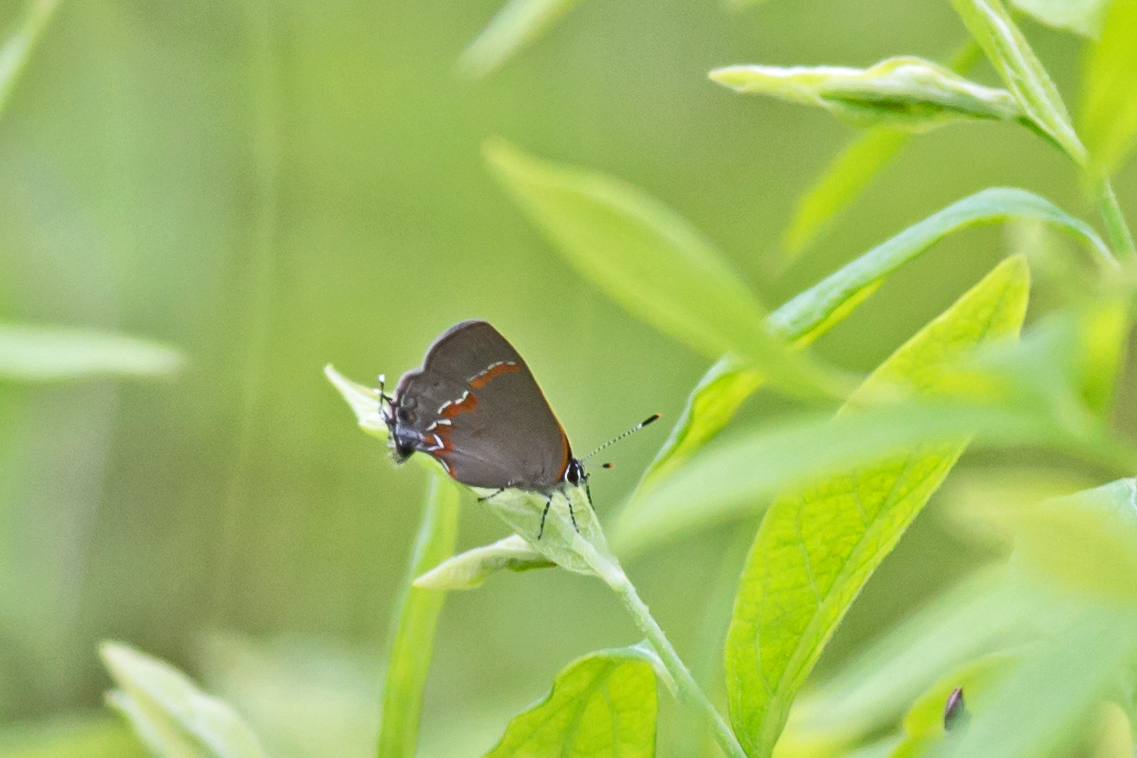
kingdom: Animalia
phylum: Arthropoda
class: Insecta
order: Lepidoptera
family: Lycaenidae
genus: Calycopis
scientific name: Calycopis cecrops
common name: Red-banded hairstreak
